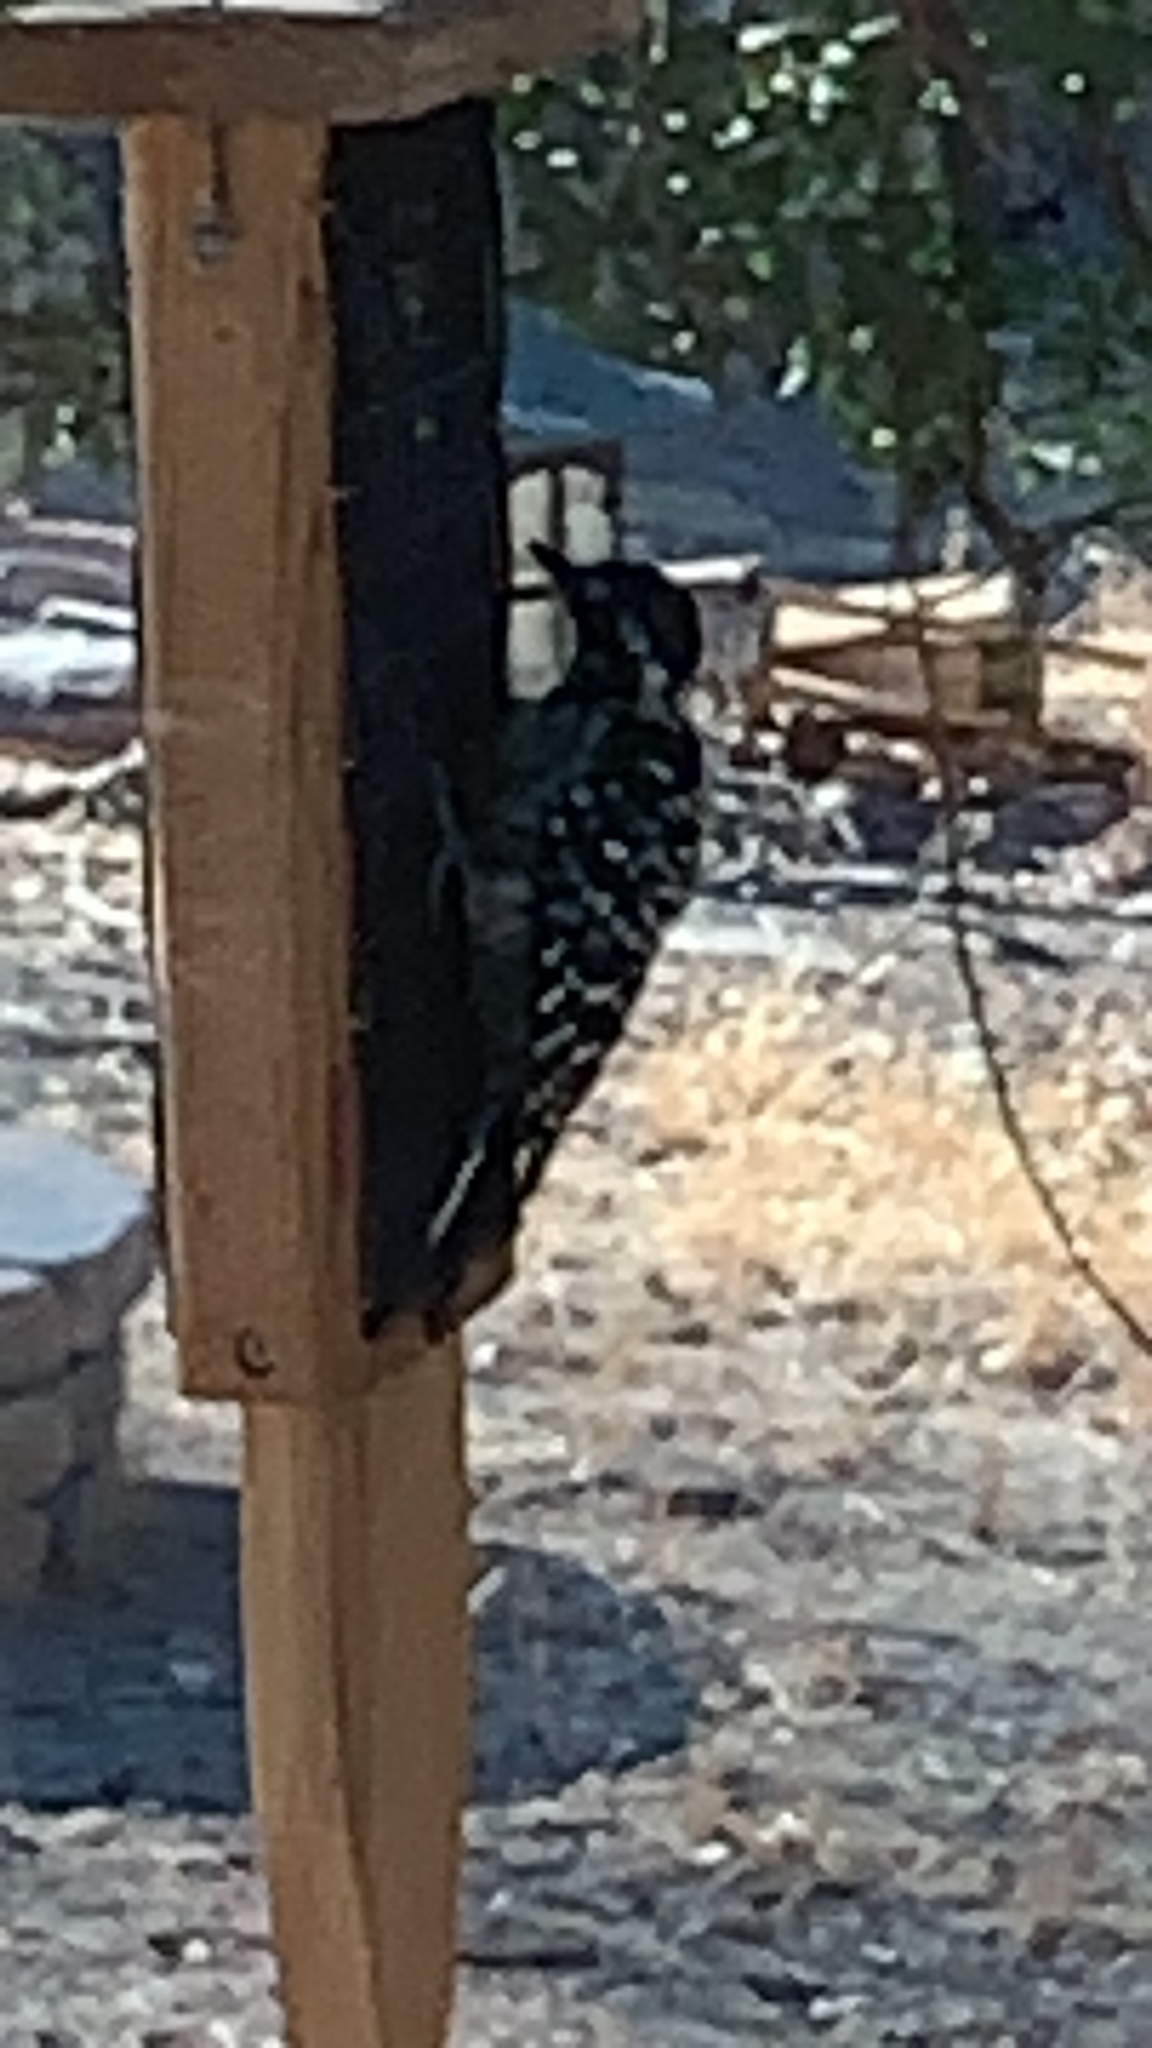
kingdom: Animalia
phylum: Chordata
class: Aves
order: Piciformes
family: Picidae
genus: Dryobates
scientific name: Dryobates nuttallii
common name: Nuttall's woodpecker
